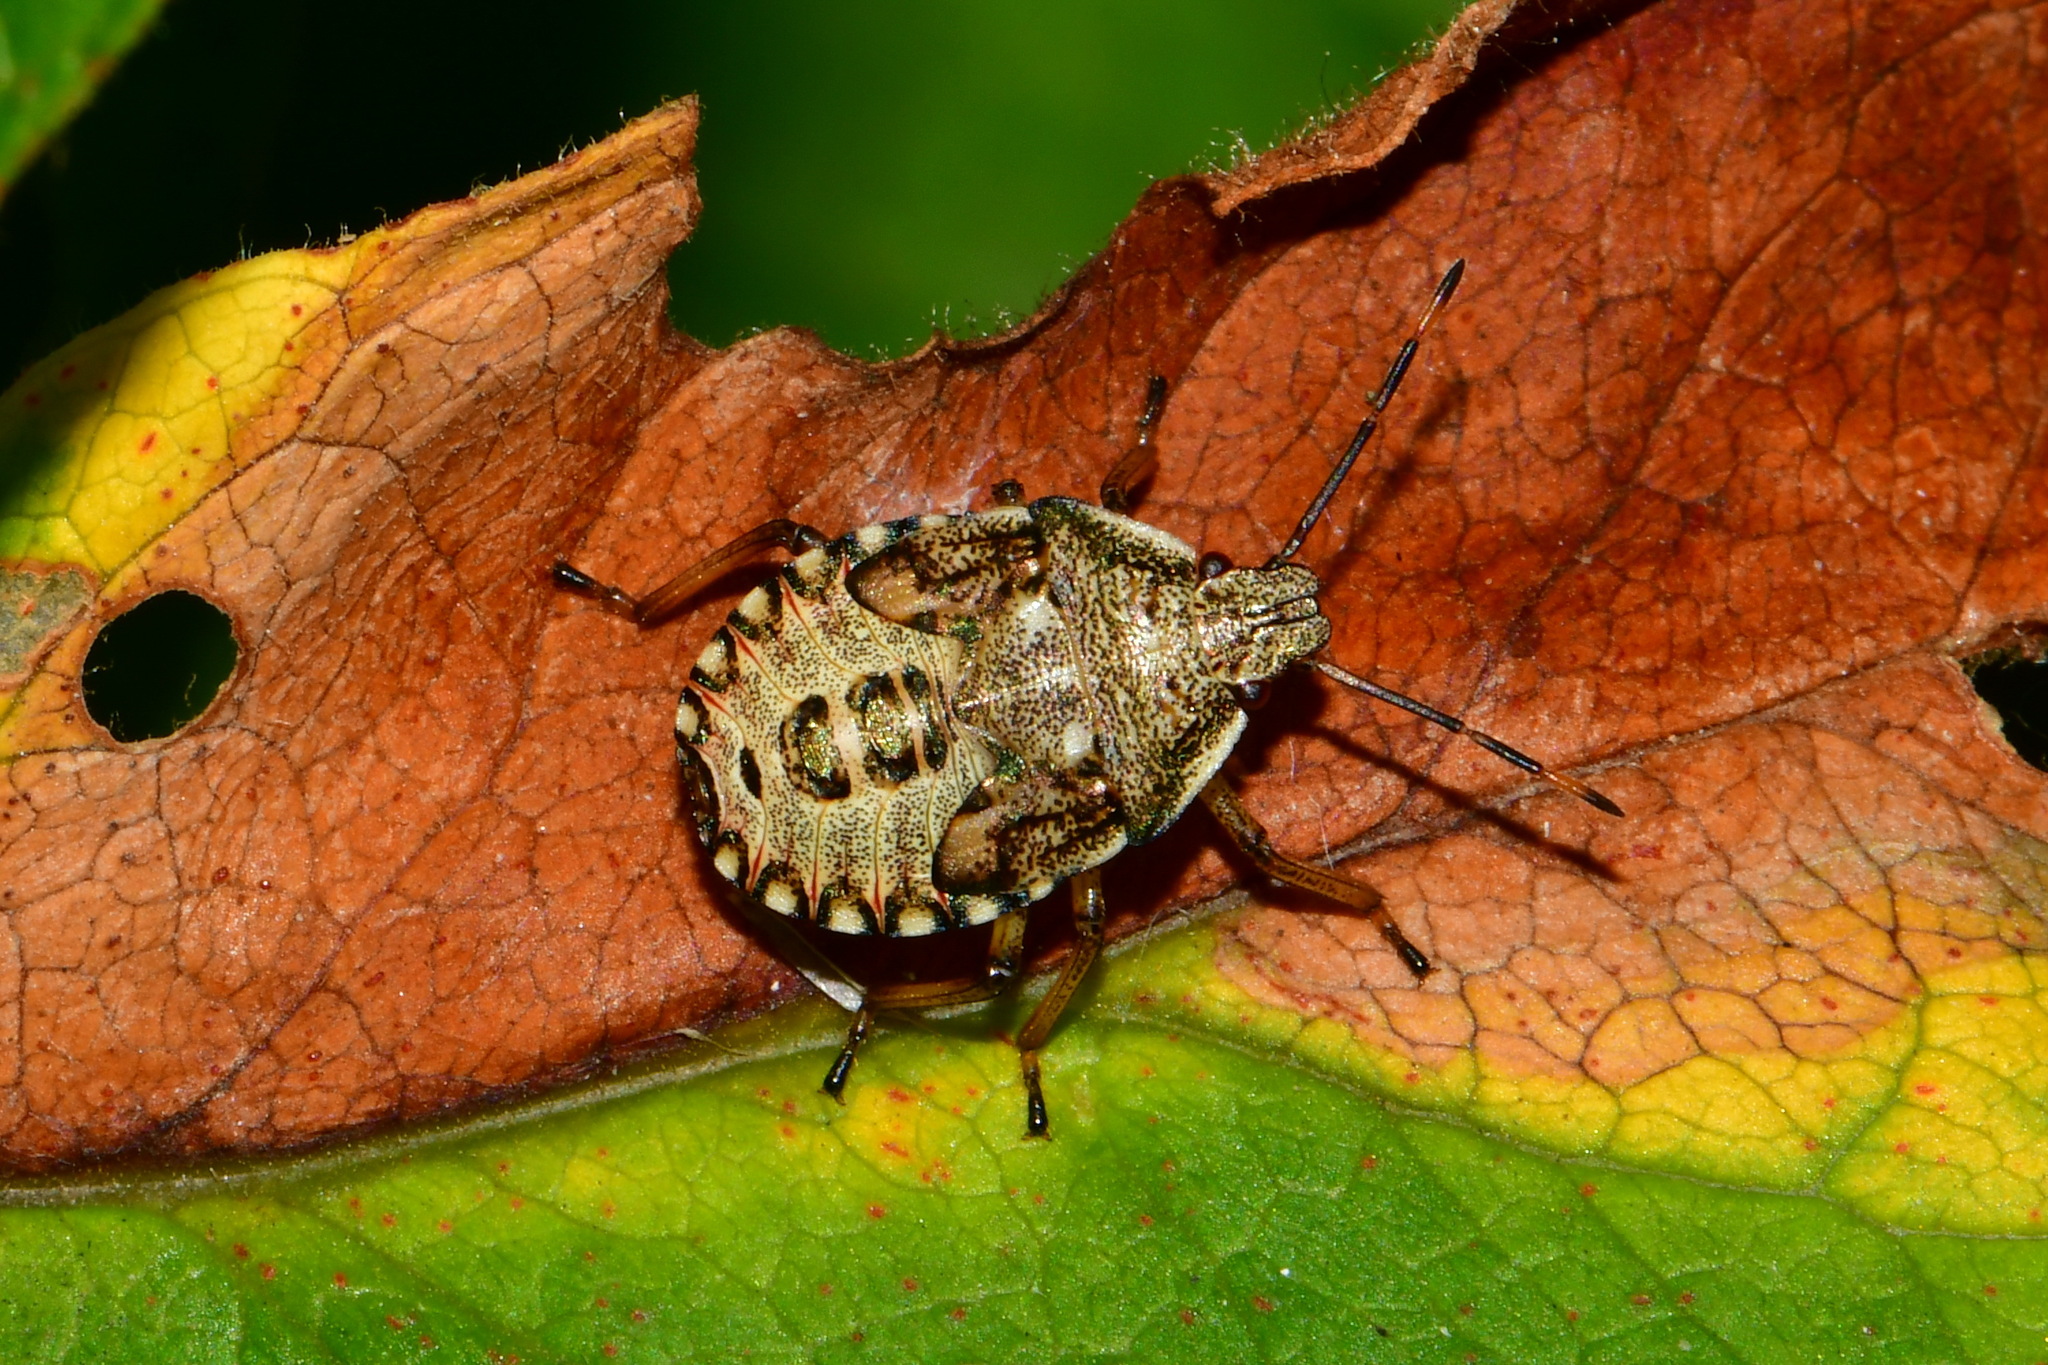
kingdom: Animalia
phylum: Arthropoda
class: Insecta
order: Hemiptera
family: Pentatomidae
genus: Arma
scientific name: Arma custos
